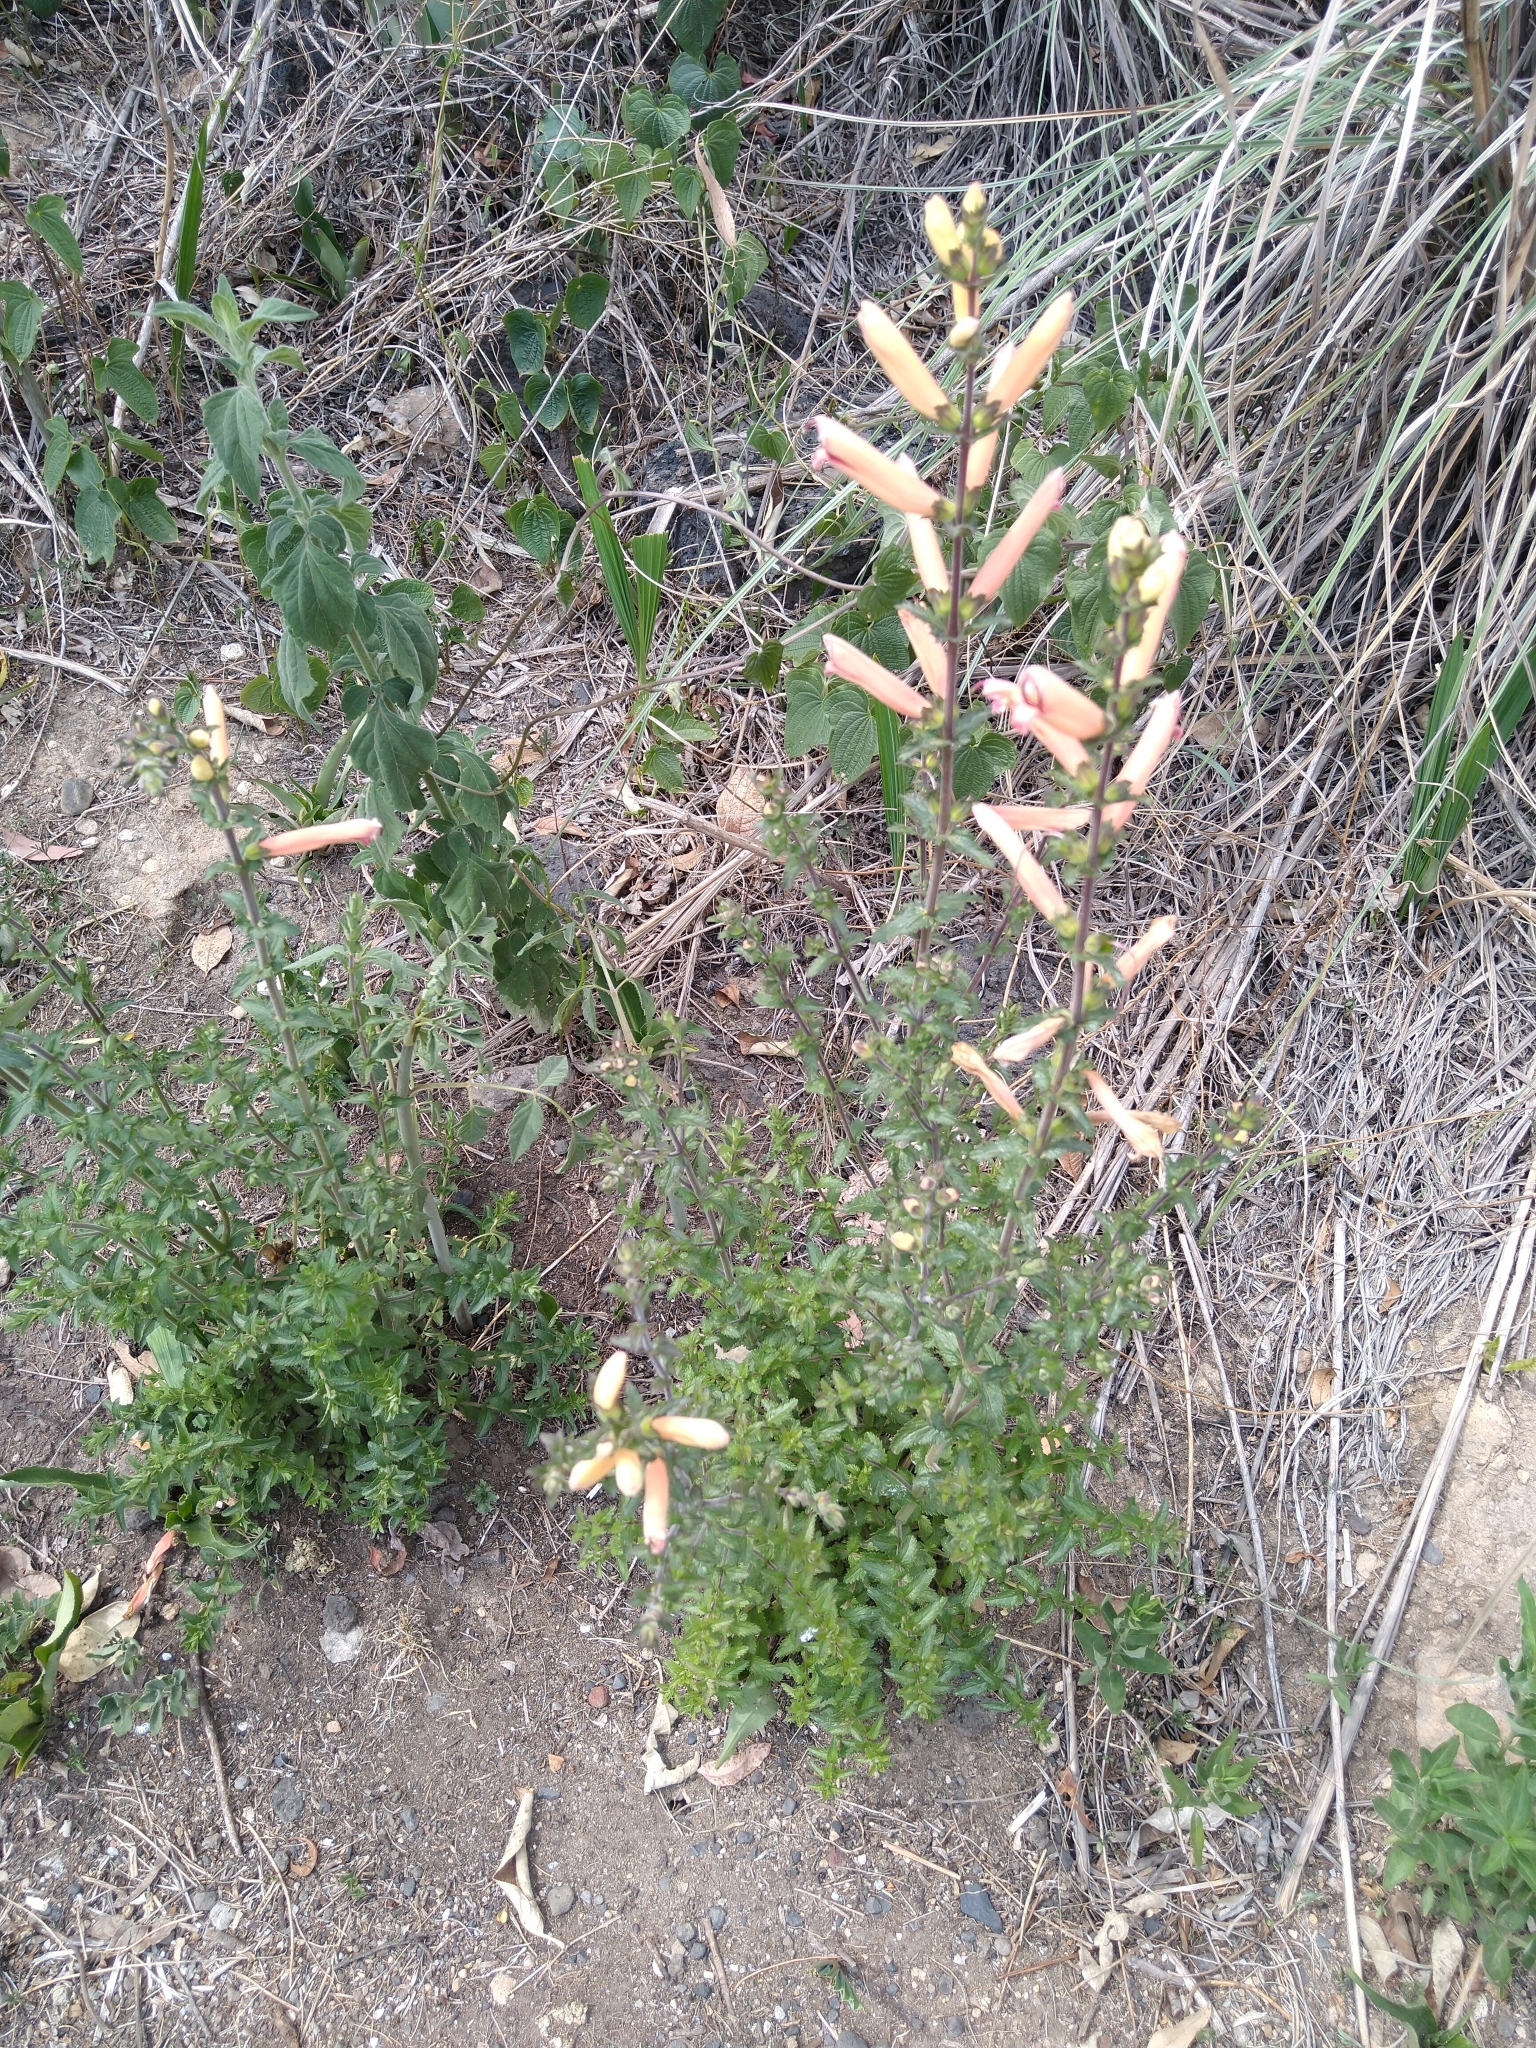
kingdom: Plantae
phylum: Tracheophyta
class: Magnoliopsida
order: Lamiales
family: Orobanchaceae
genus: Lamourouxia
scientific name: Lamourouxia rhinanthifolia
